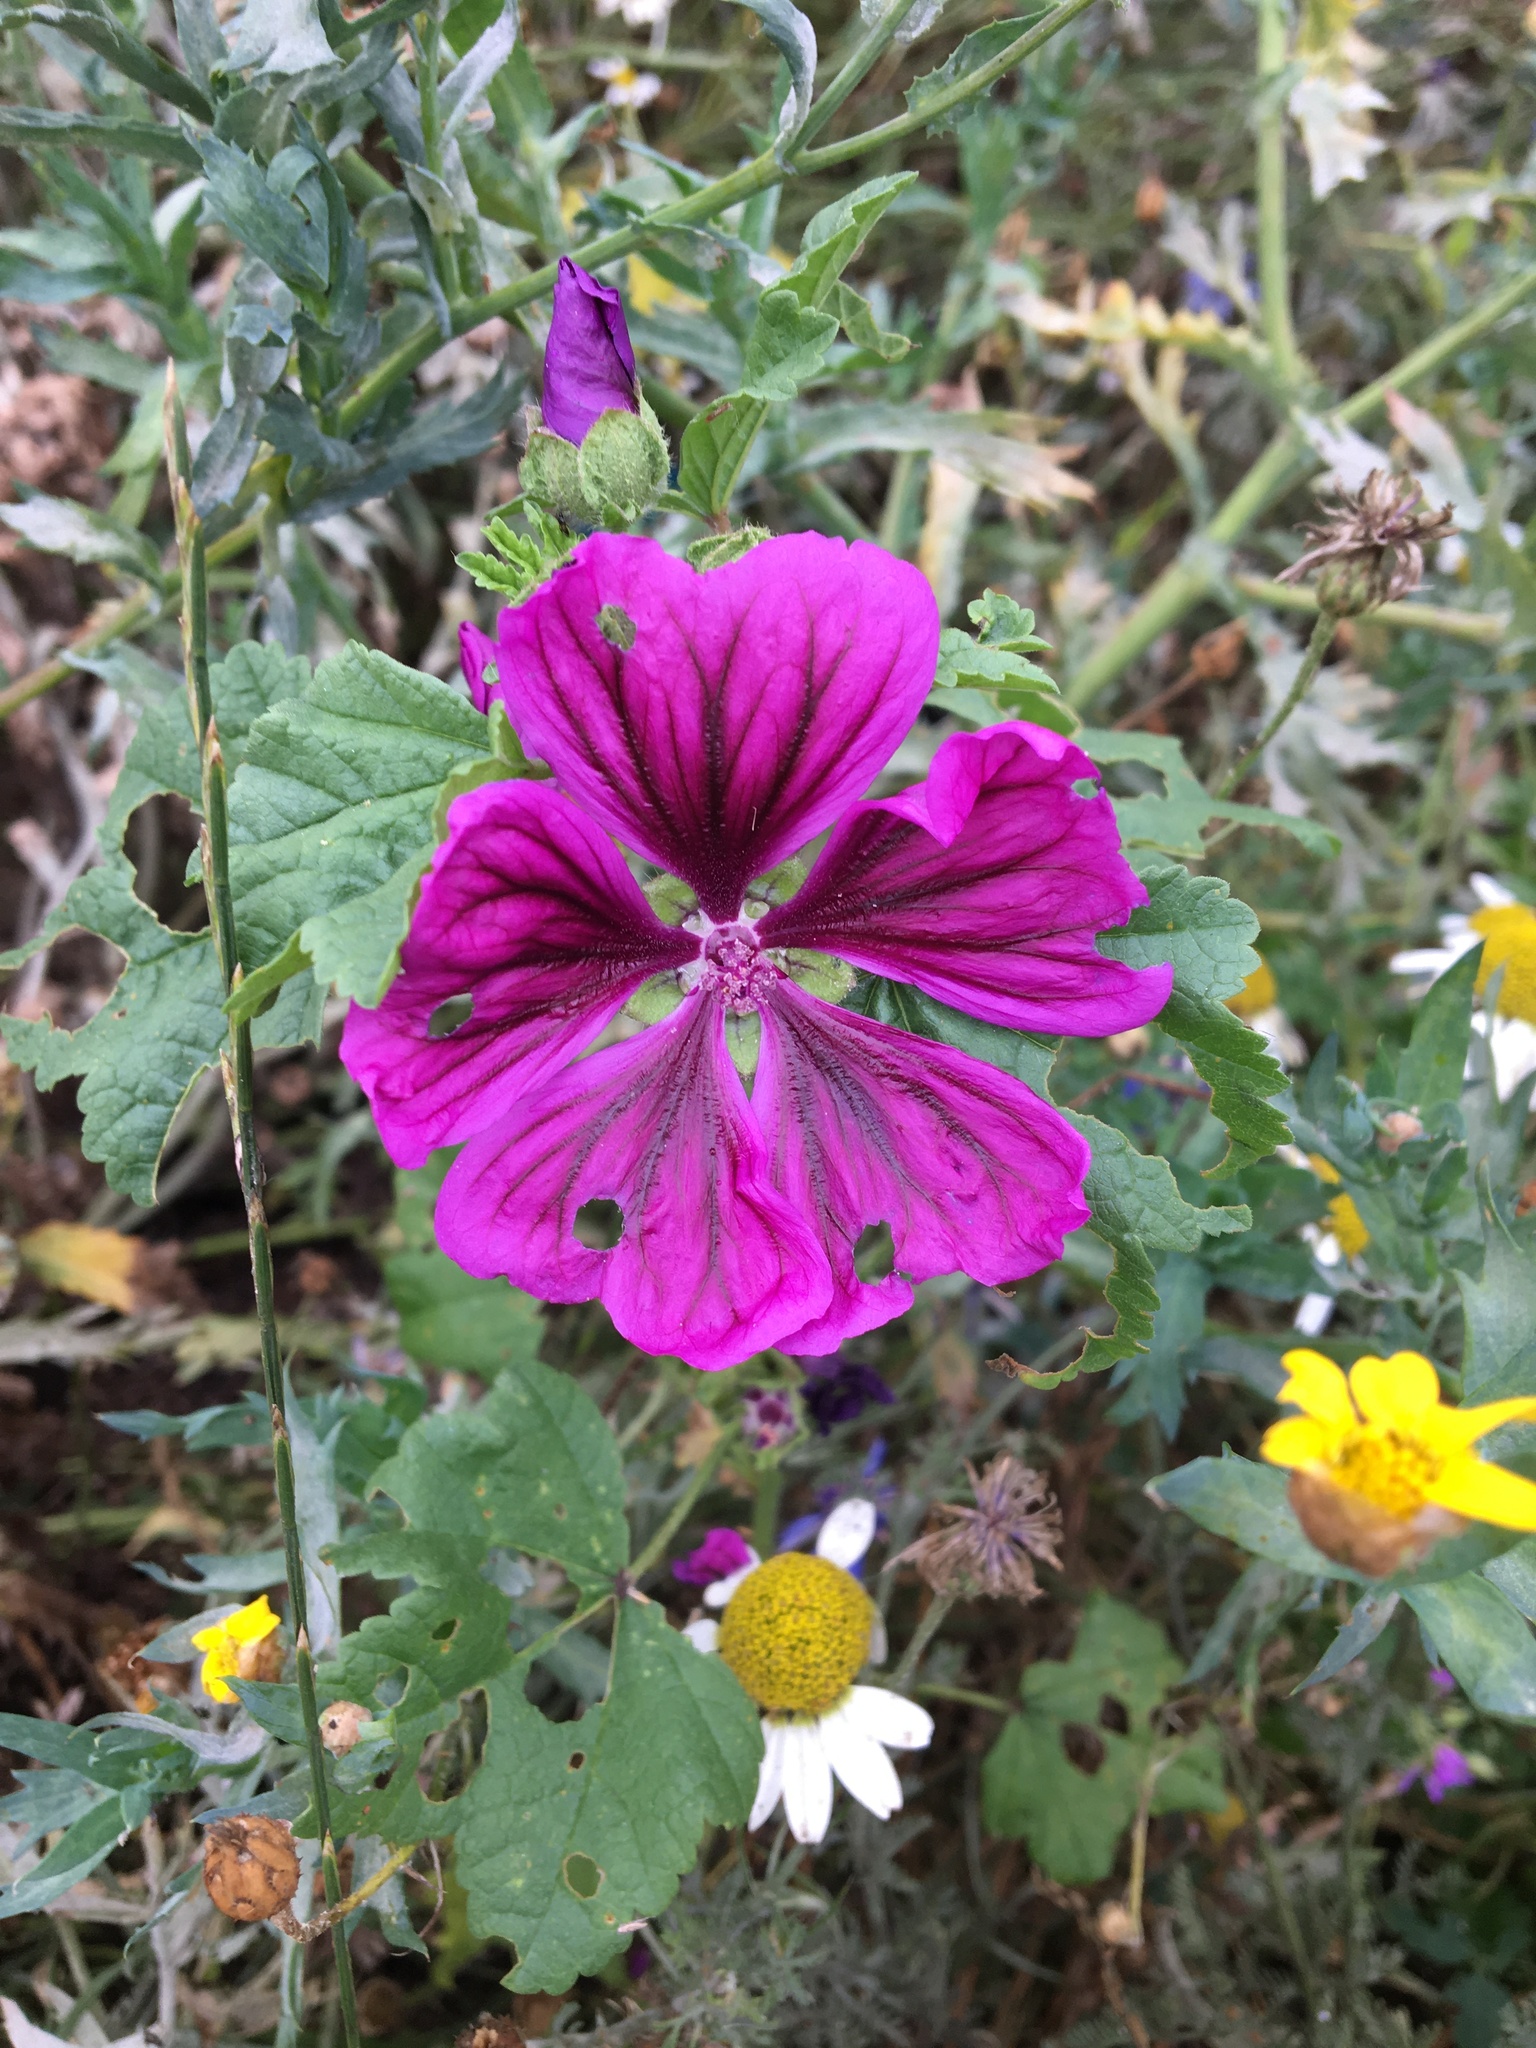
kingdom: Plantae
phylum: Tracheophyta
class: Magnoliopsida
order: Malvales
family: Malvaceae
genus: Malva
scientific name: Malva sylvestris
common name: Common mallow
